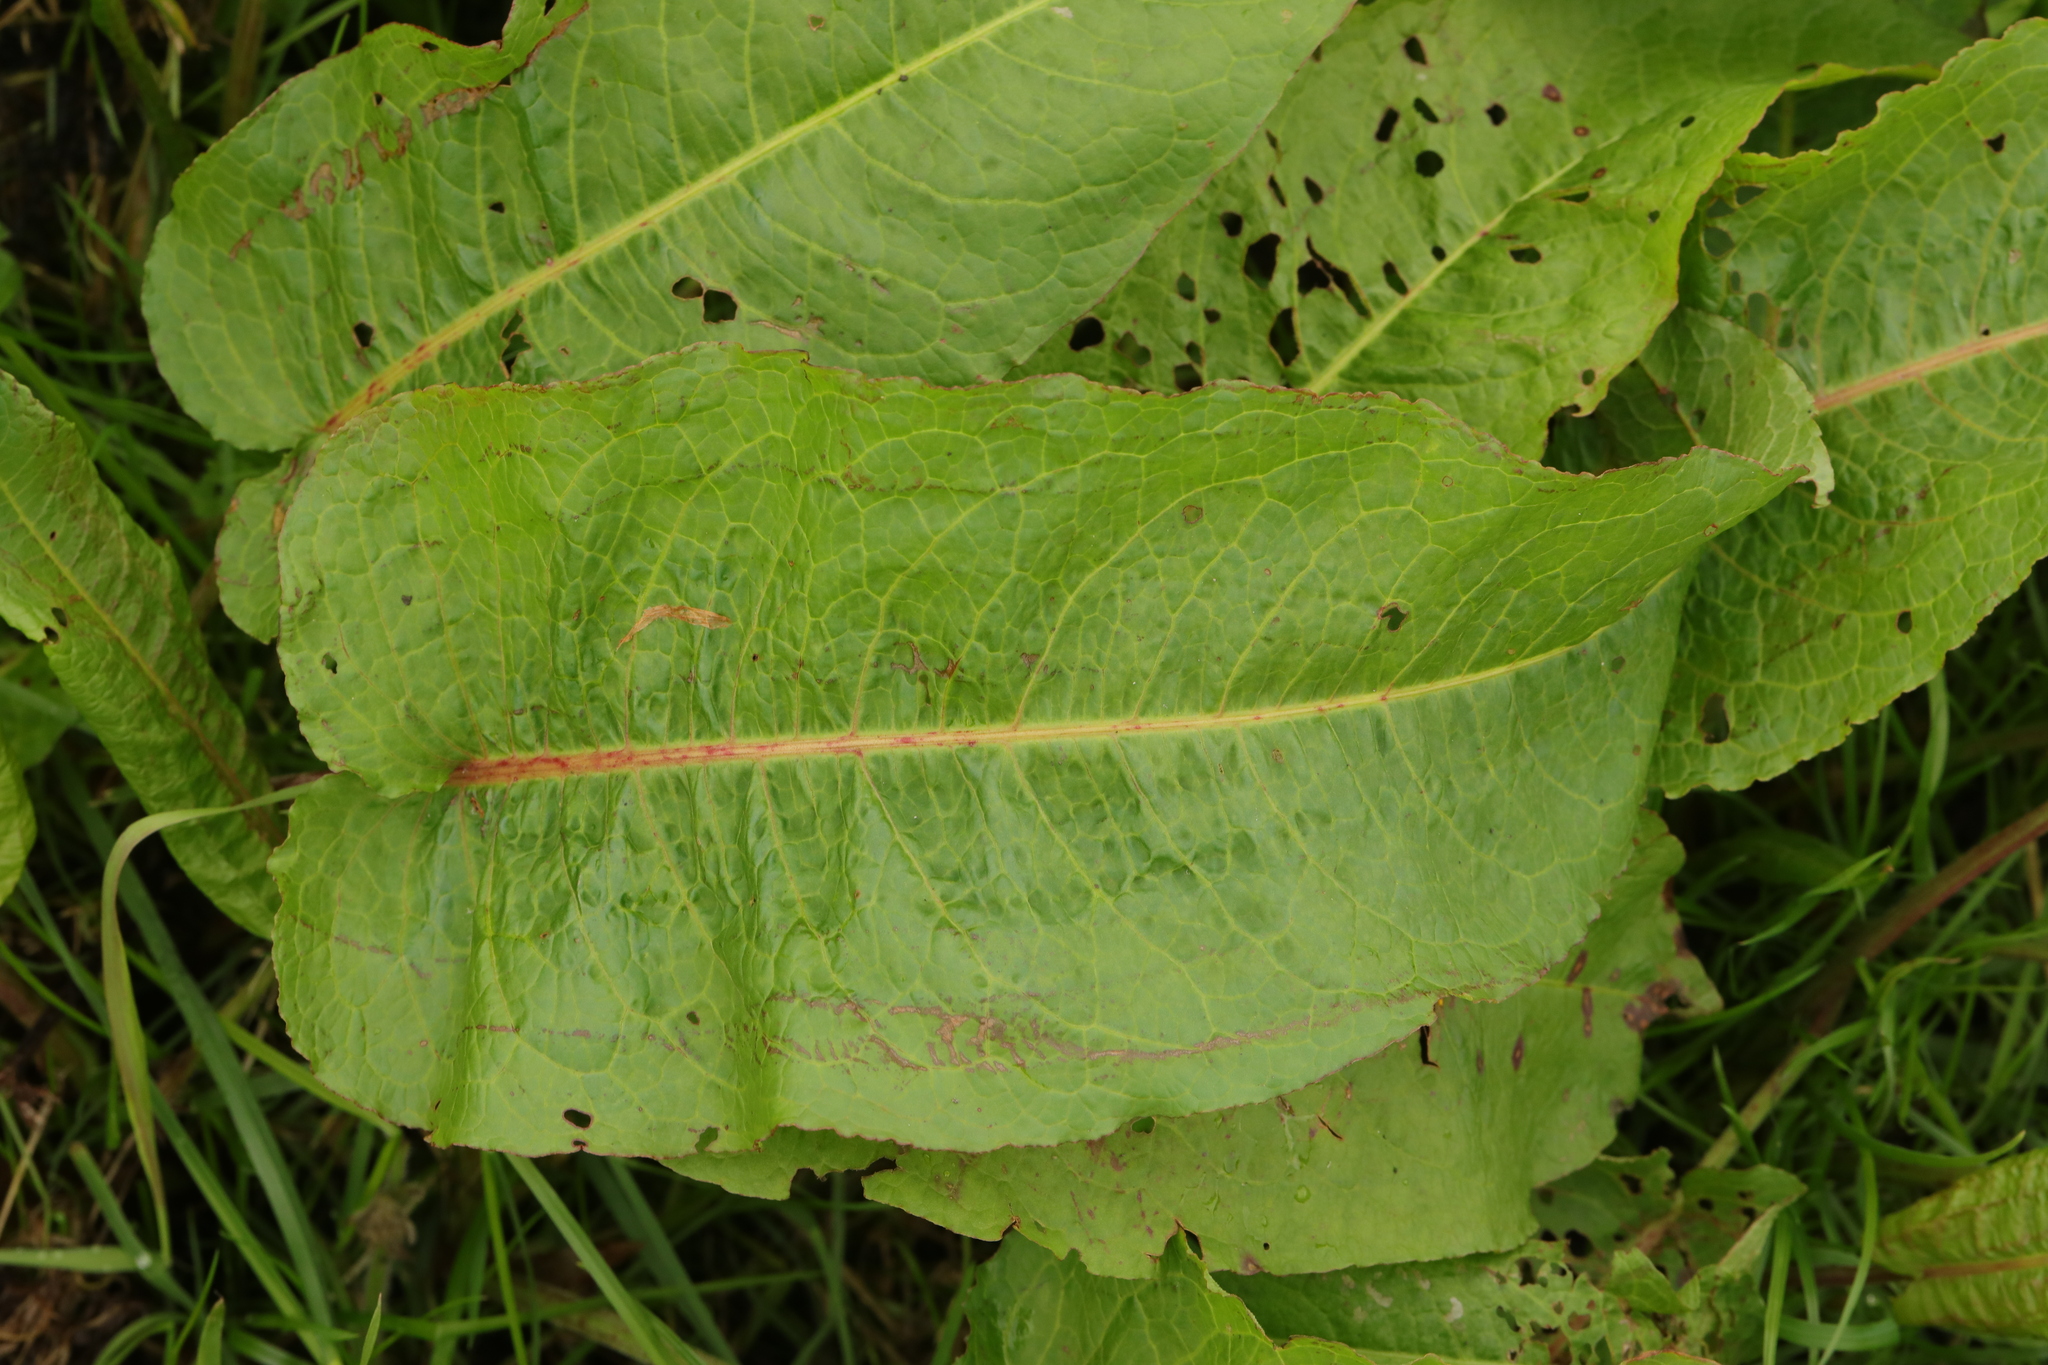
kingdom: Plantae
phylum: Tracheophyta
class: Magnoliopsida
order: Caryophyllales
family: Polygonaceae
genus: Rumex
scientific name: Rumex obtusifolius
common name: Bitter dock
